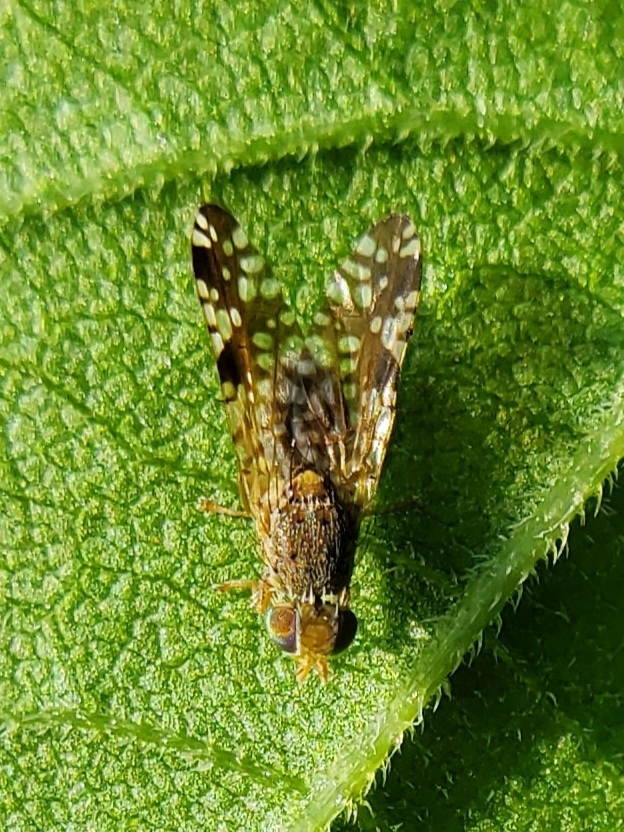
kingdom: Animalia
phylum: Arthropoda
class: Insecta
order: Diptera
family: Tephritidae
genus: Neotephritis
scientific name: Neotephritis finalis
